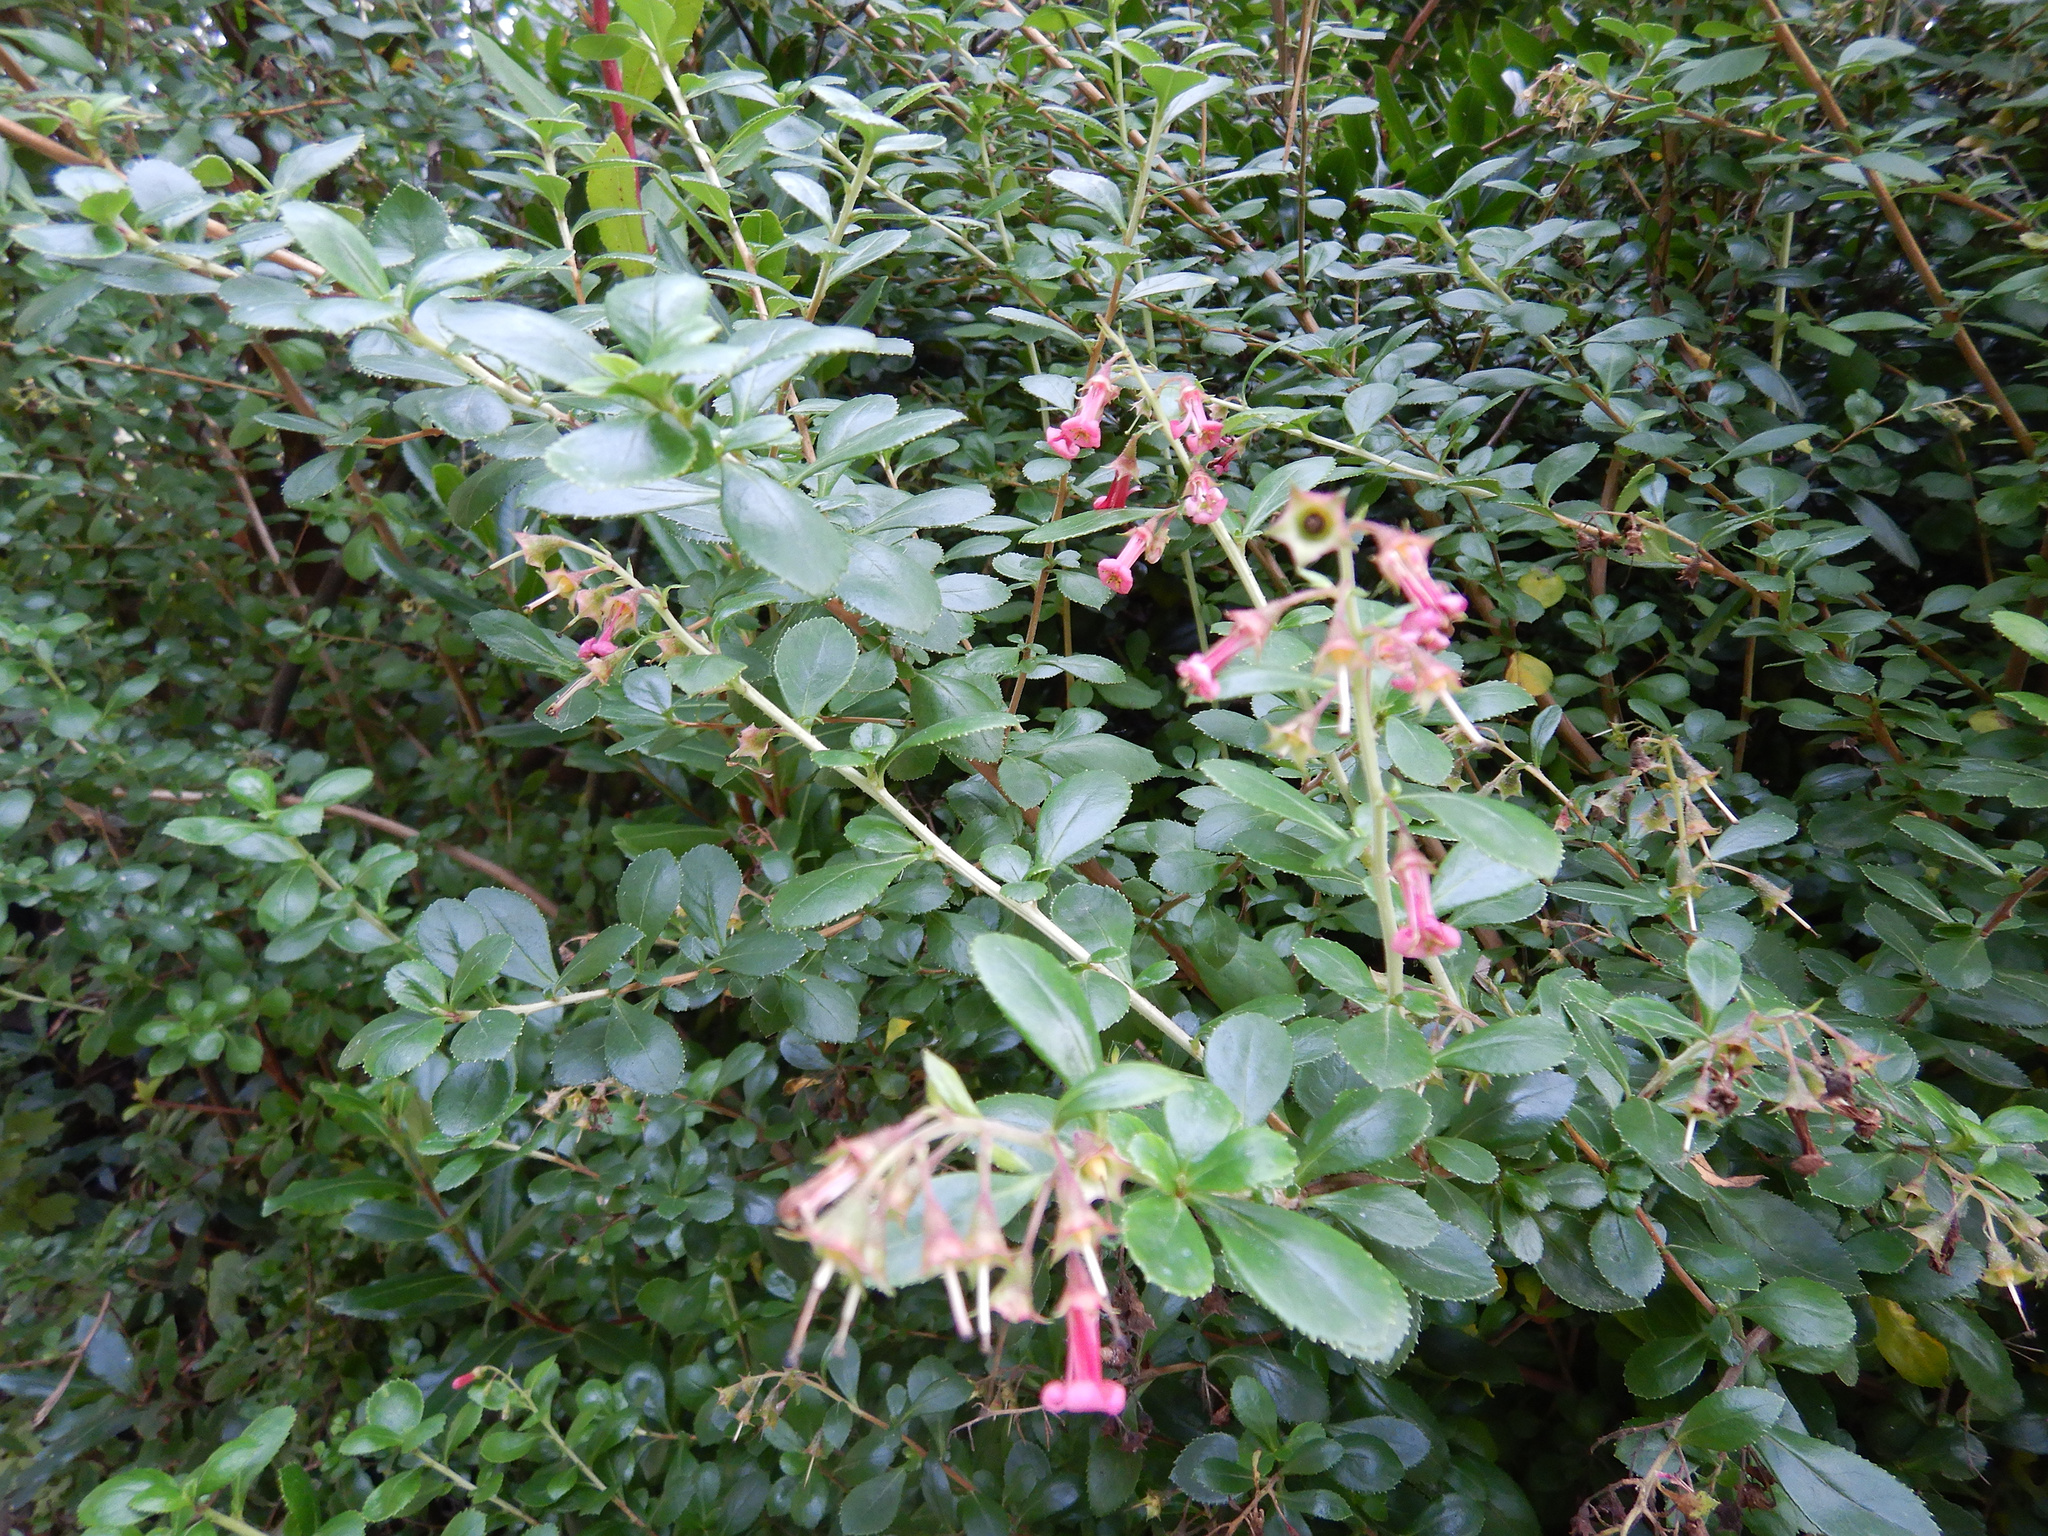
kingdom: Plantae
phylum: Tracheophyta
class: Magnoliopsida
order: Escalloniales
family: Escalloniaceae
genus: Escallonia
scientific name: Escallonia rubra
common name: Redclaws
